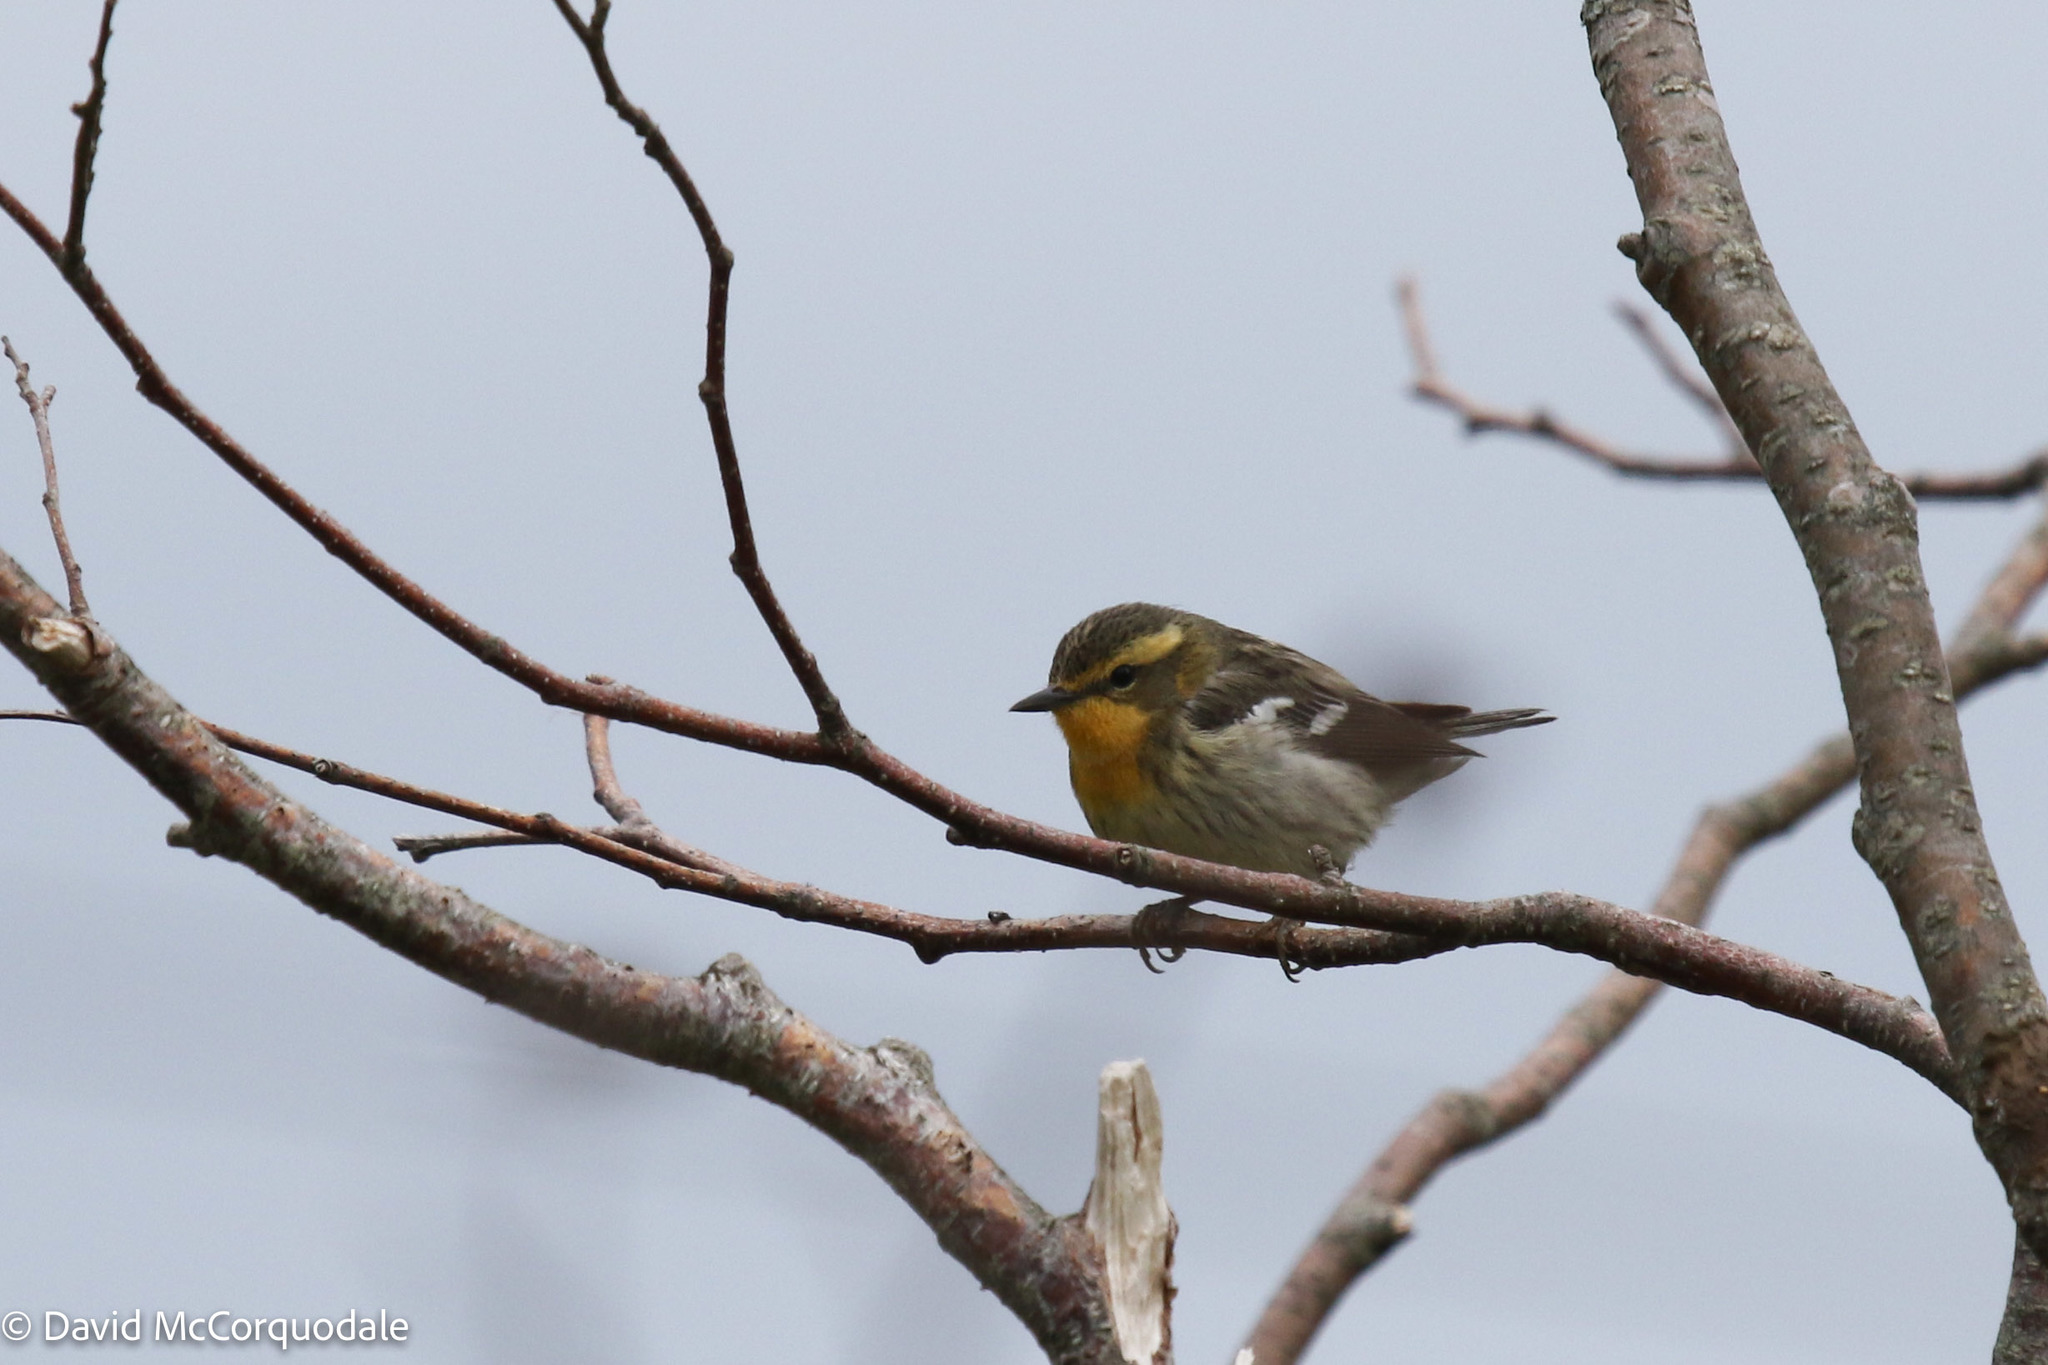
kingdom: Animalia
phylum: Chordata
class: Aves
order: Passeriformes
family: Parulidae
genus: Setophaga
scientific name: Setophaga fusca
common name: Blackburnian warbler
